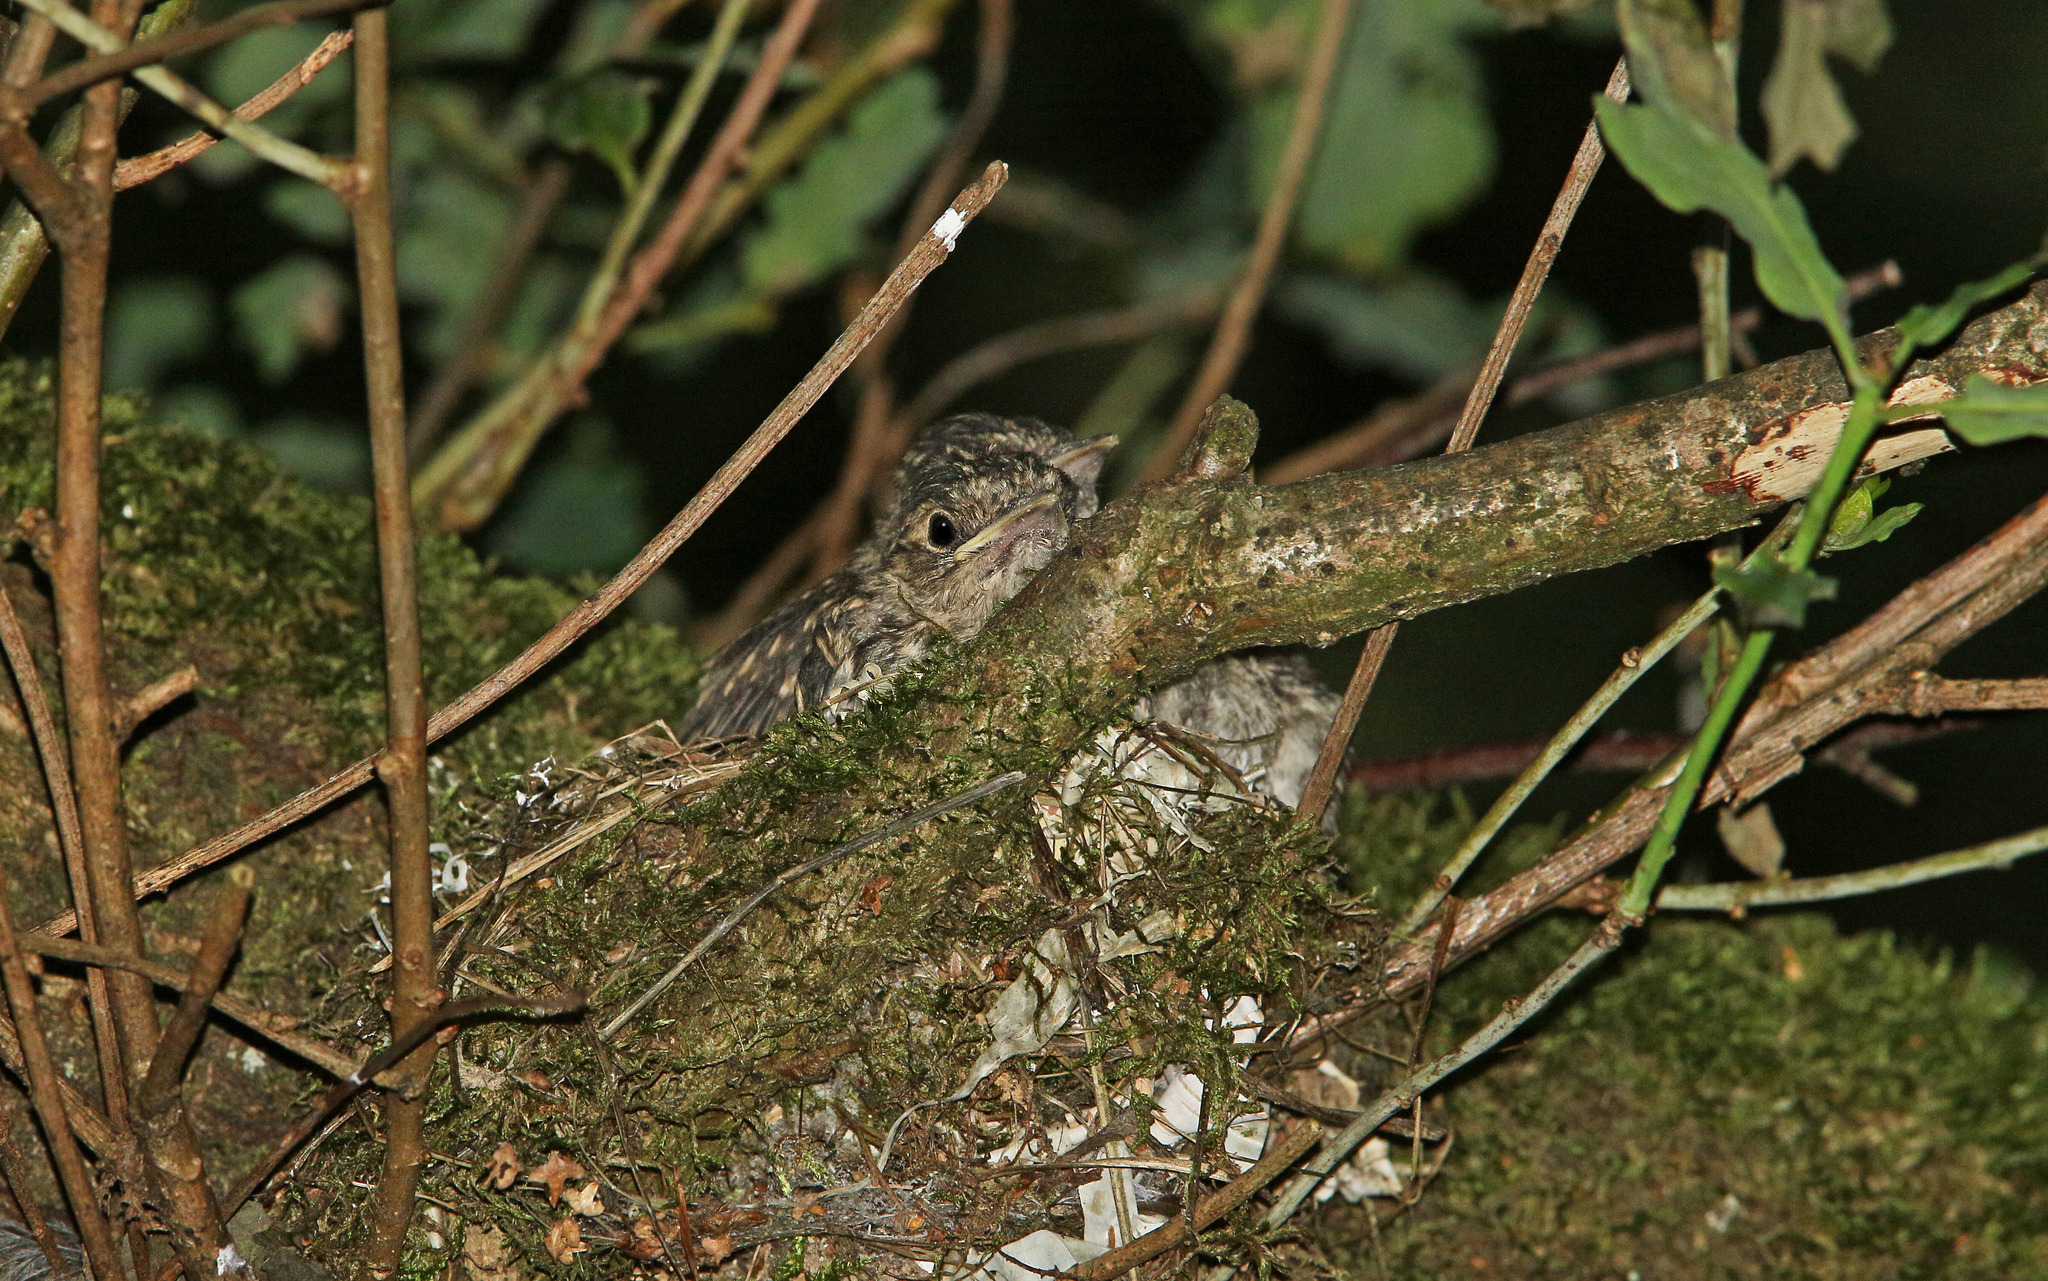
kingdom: Animalia
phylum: Chordata
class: Aves
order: Passeriformes
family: Muscicapidae
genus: Muscicapa
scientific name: Muscicapa striata
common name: Spotted flycatcher
